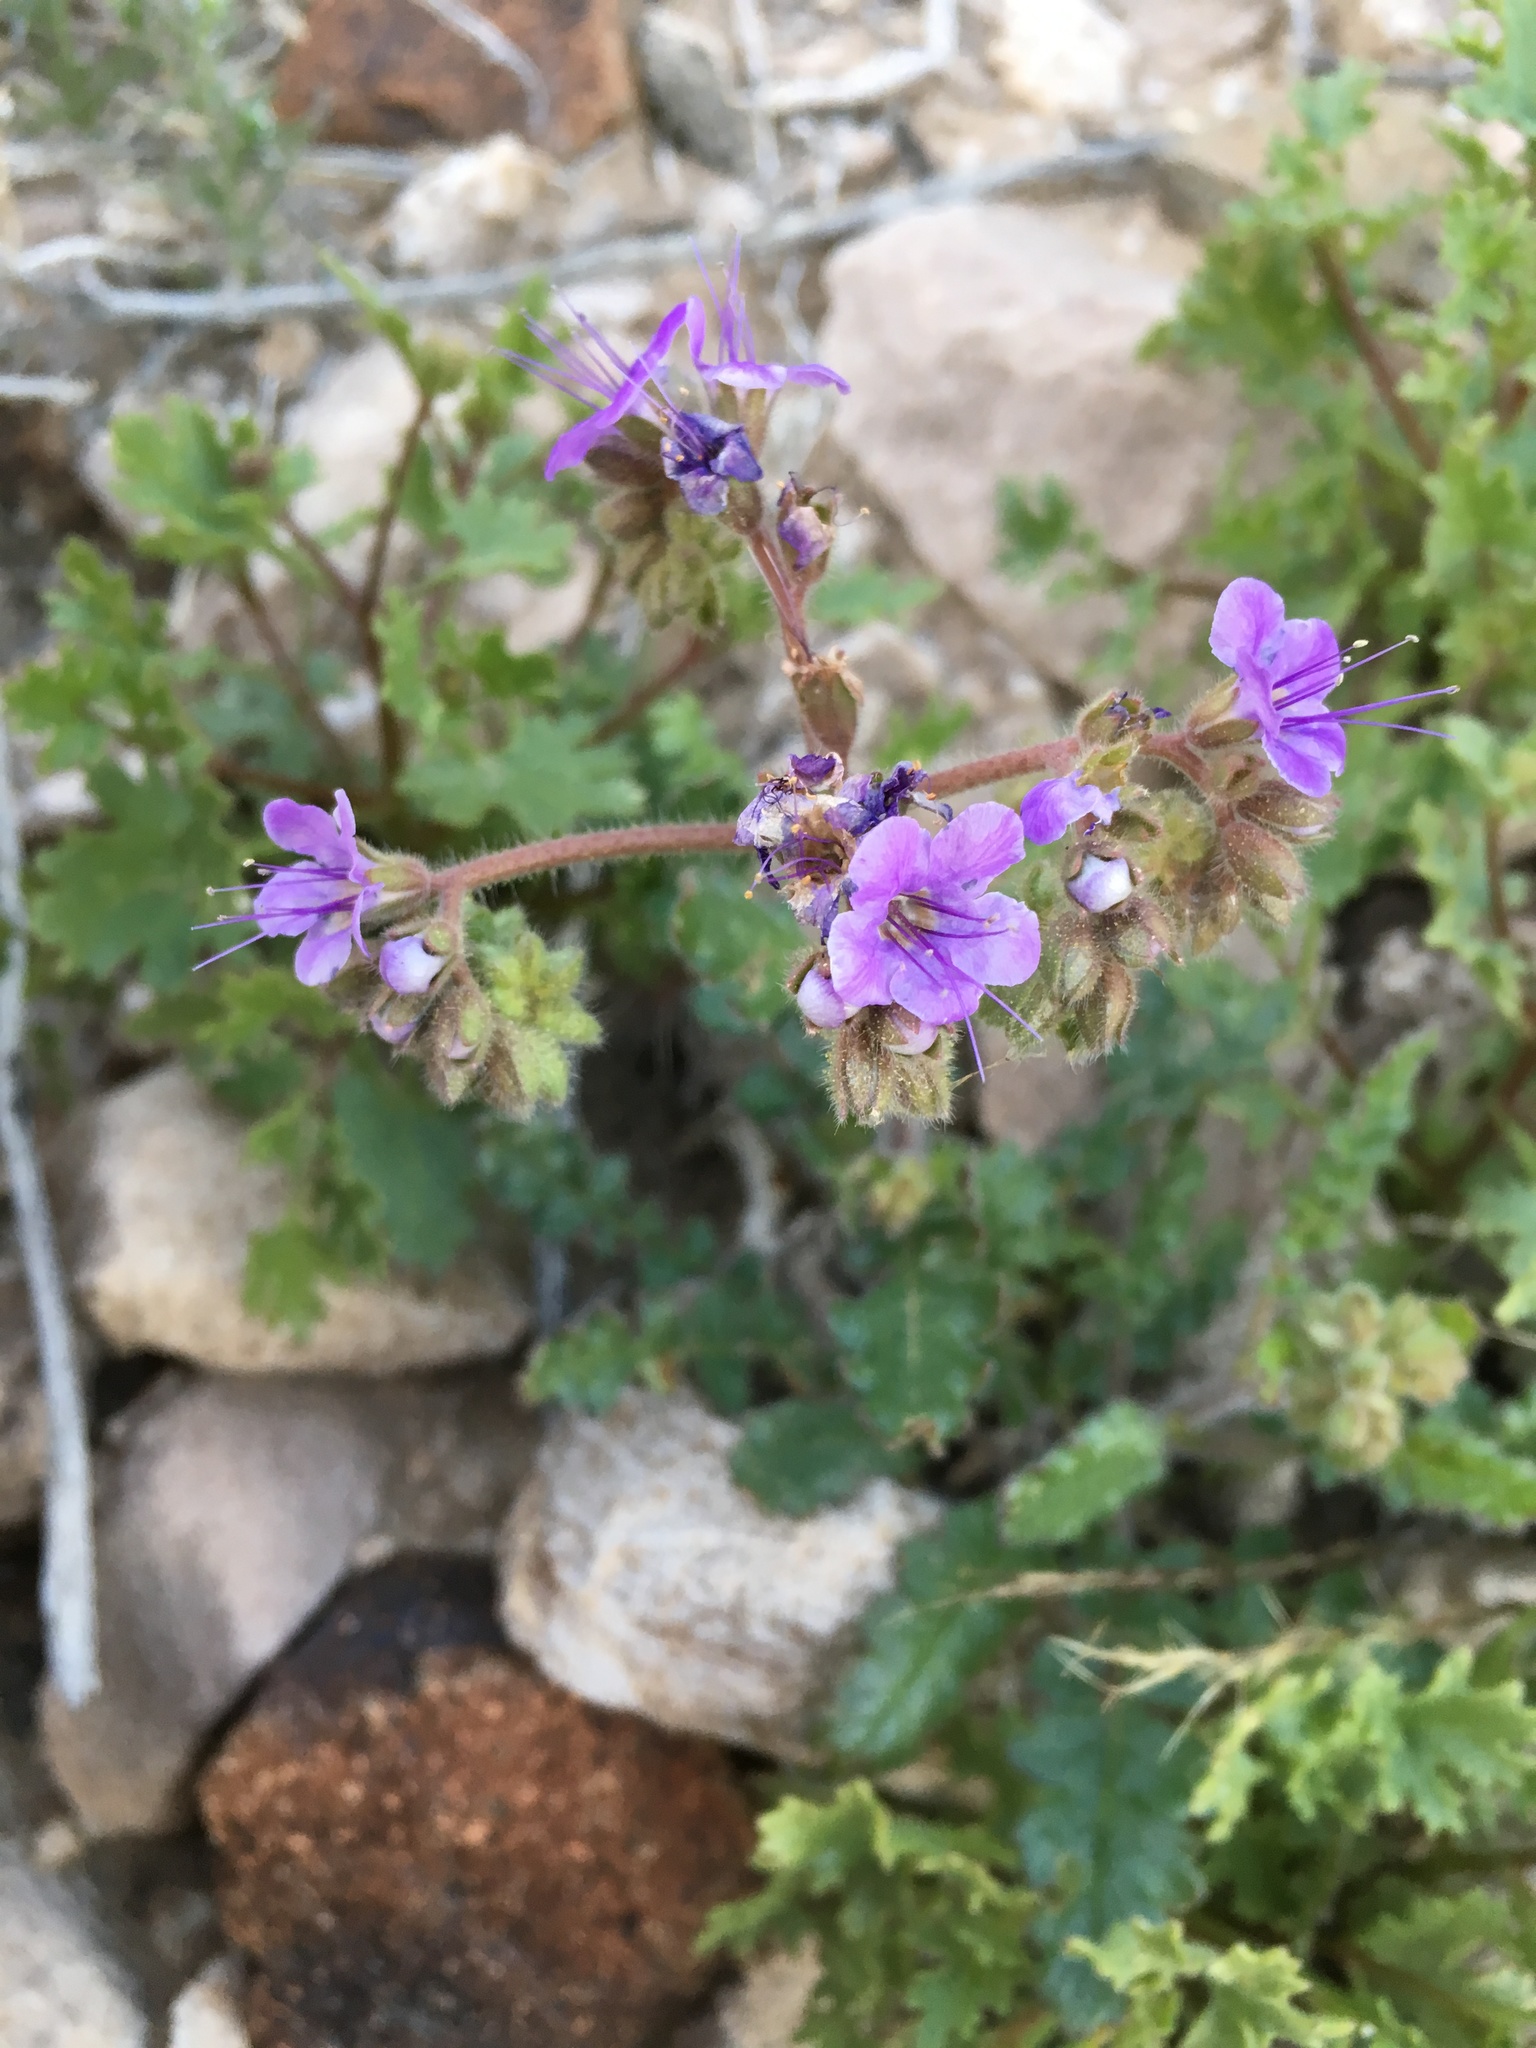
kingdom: Plantae
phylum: Tracheophyta
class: Magnoliopsida
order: Boraginales
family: Hydrophyllaceae
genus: Phacelia
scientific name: Phacelia crenulata
